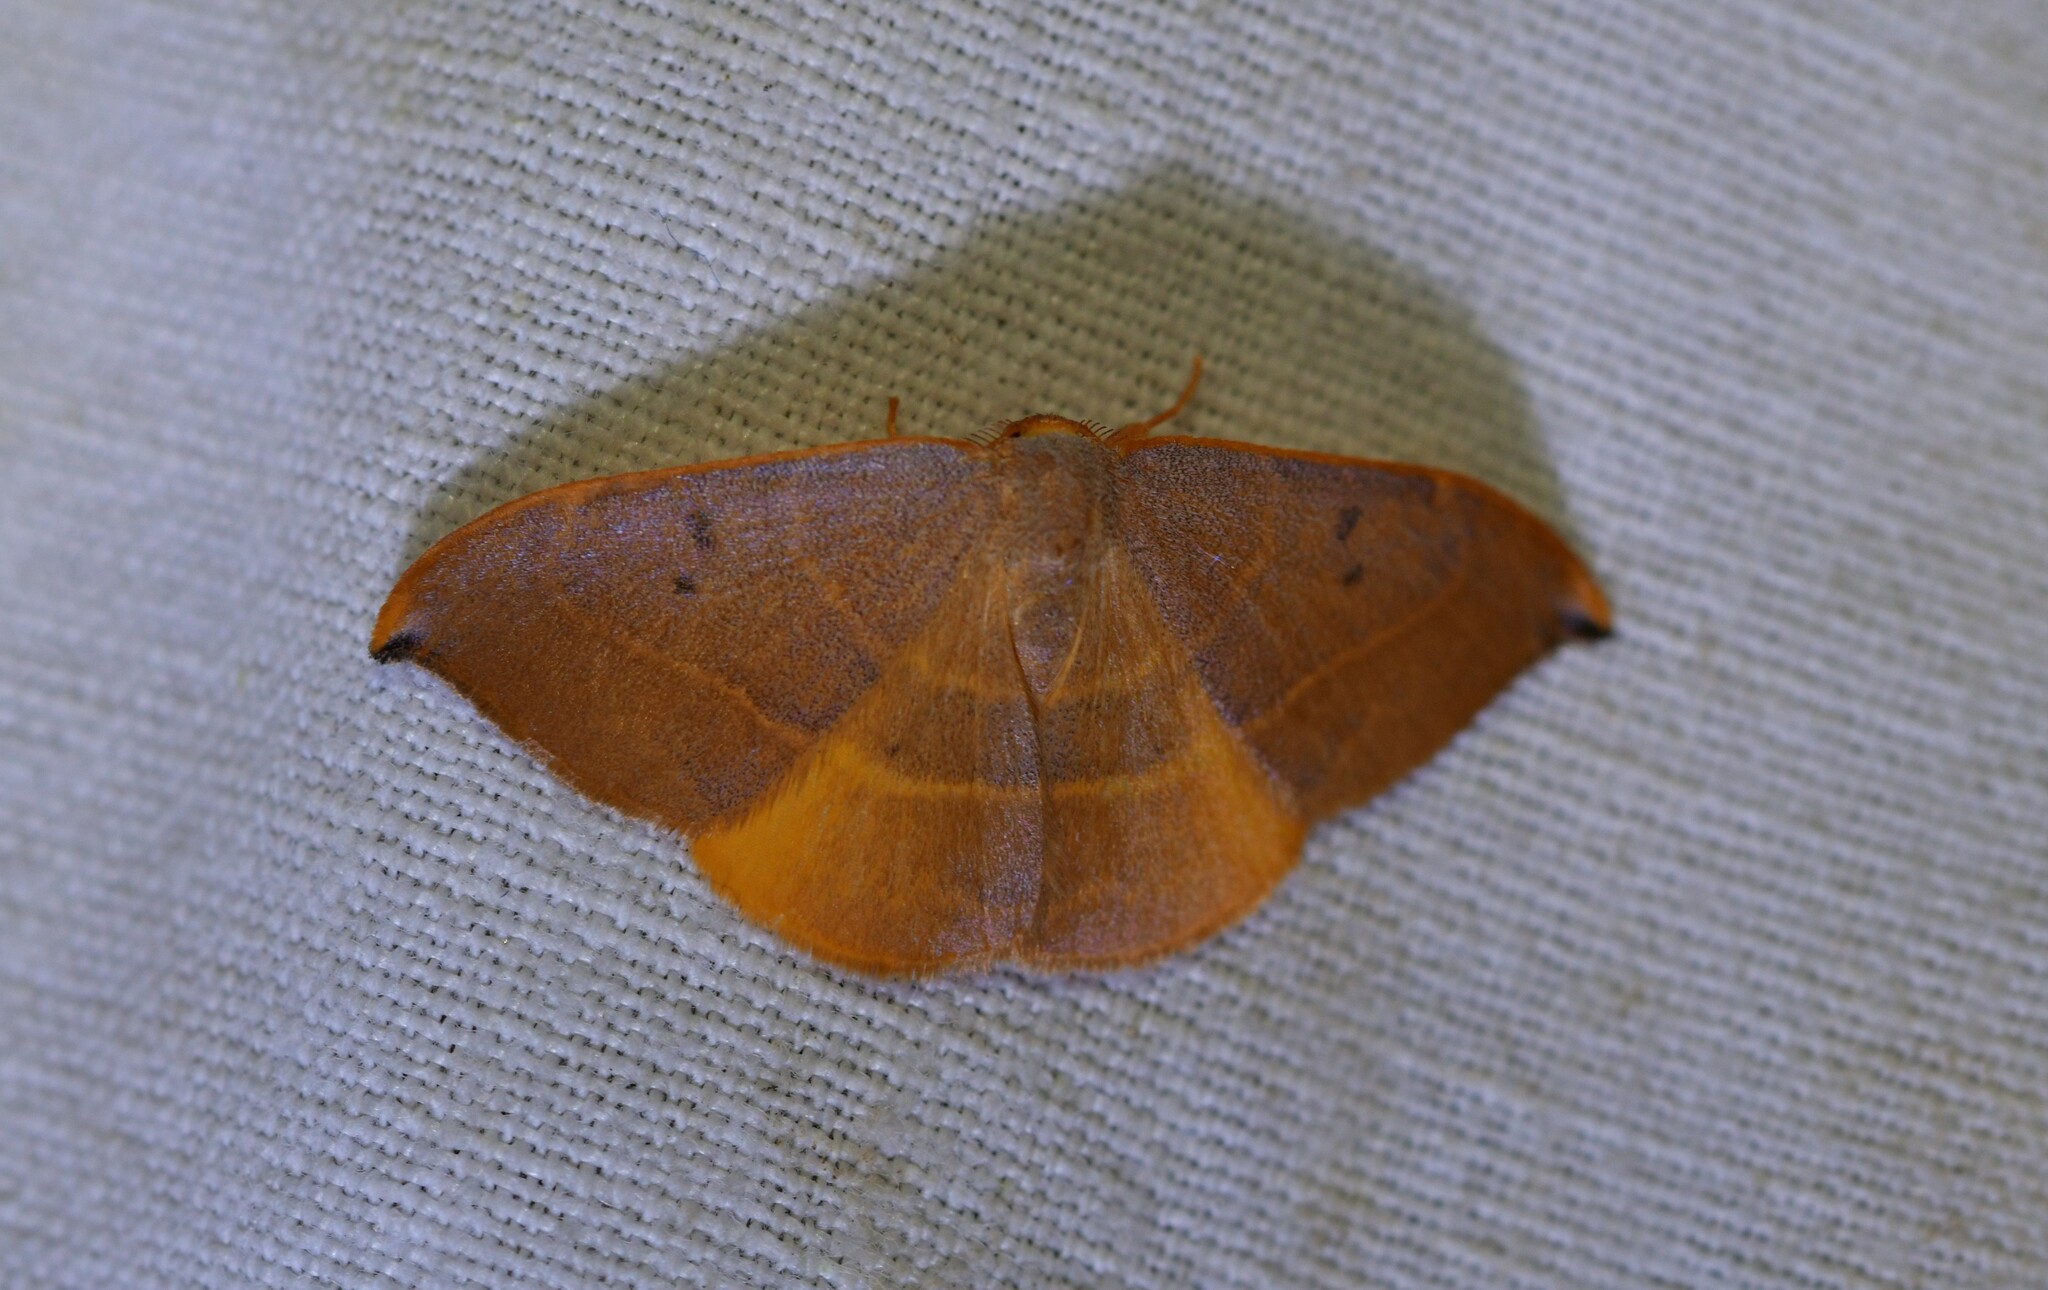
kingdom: Animalia
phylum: Arthropoda
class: Insecta
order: Lepidoptera
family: Drepanidae
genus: Watsonalla
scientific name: Watsonalla uncinula
